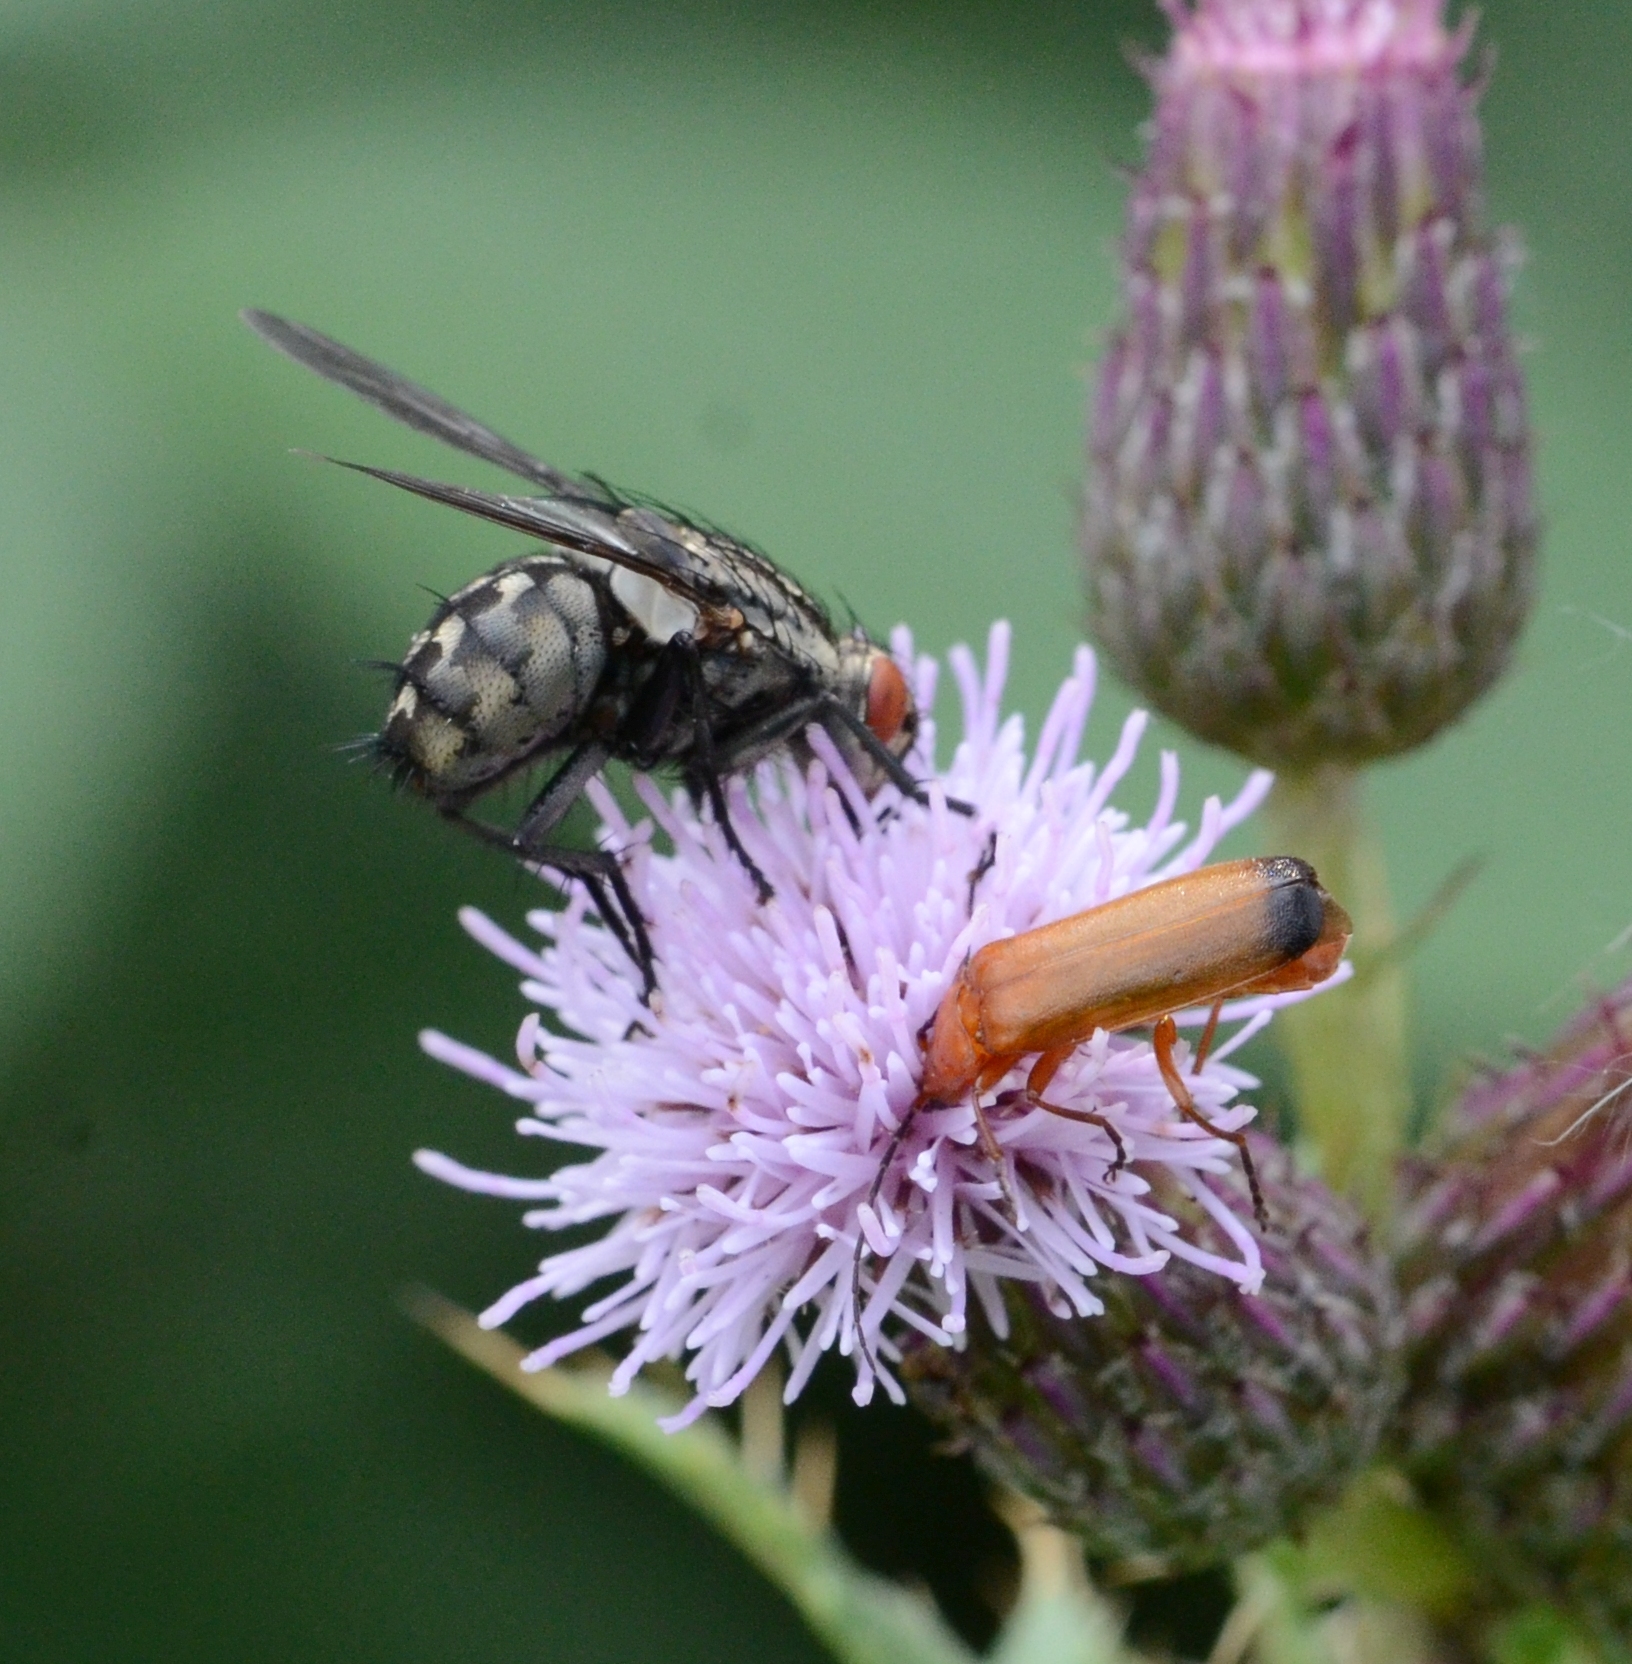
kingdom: Animalia
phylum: Arthropoda
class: Insecta
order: Coleoptera
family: Cantharidae
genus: Rhagonycha
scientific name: Rhagonycha fulva
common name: Common red soldier beetle
